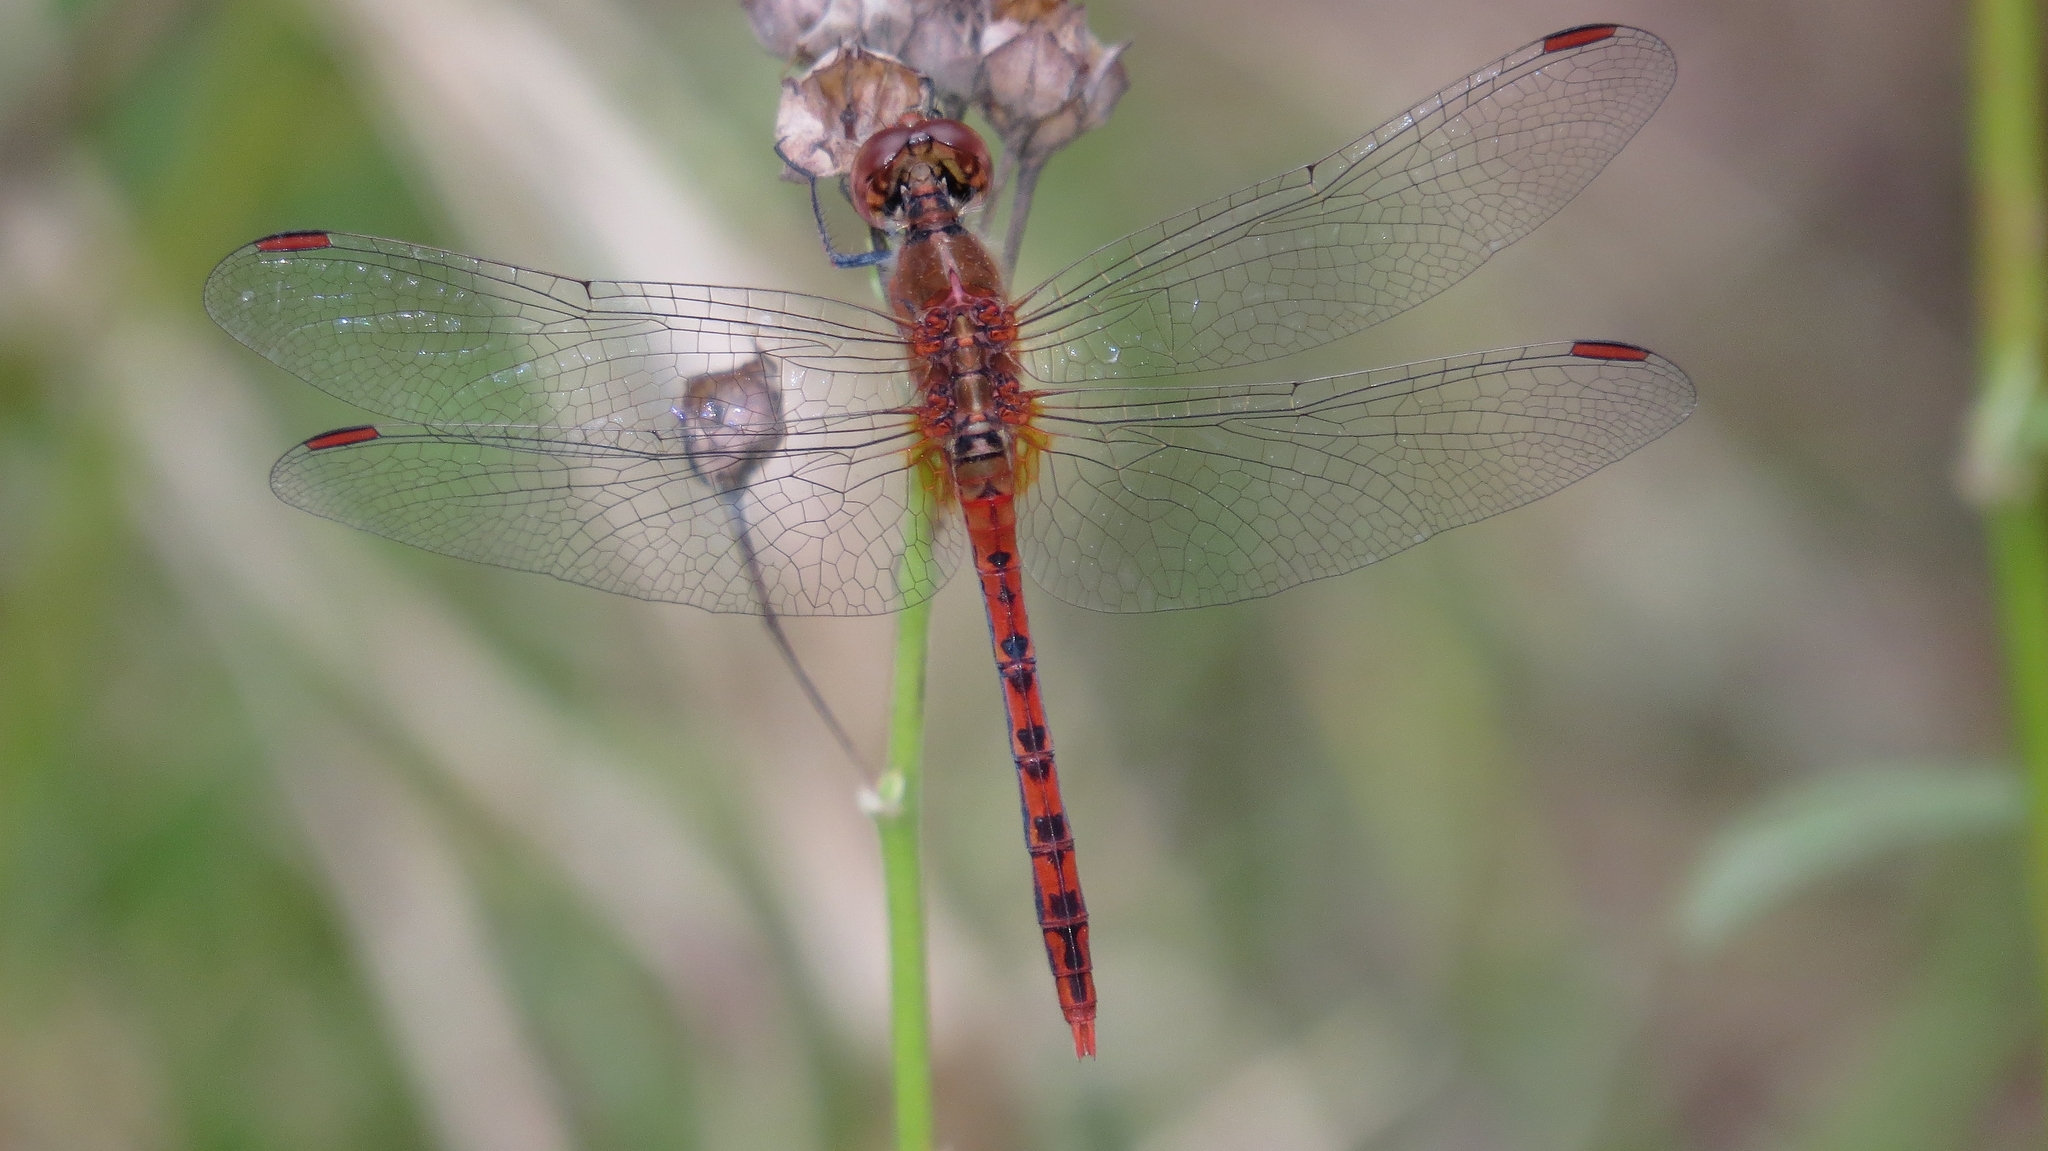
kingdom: Animalia
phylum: Arthropoda
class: Insecta
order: Odonata
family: Libellulidae
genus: Diplacodes
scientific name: Diplacodes bipunctata
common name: Red percher dragonfly
